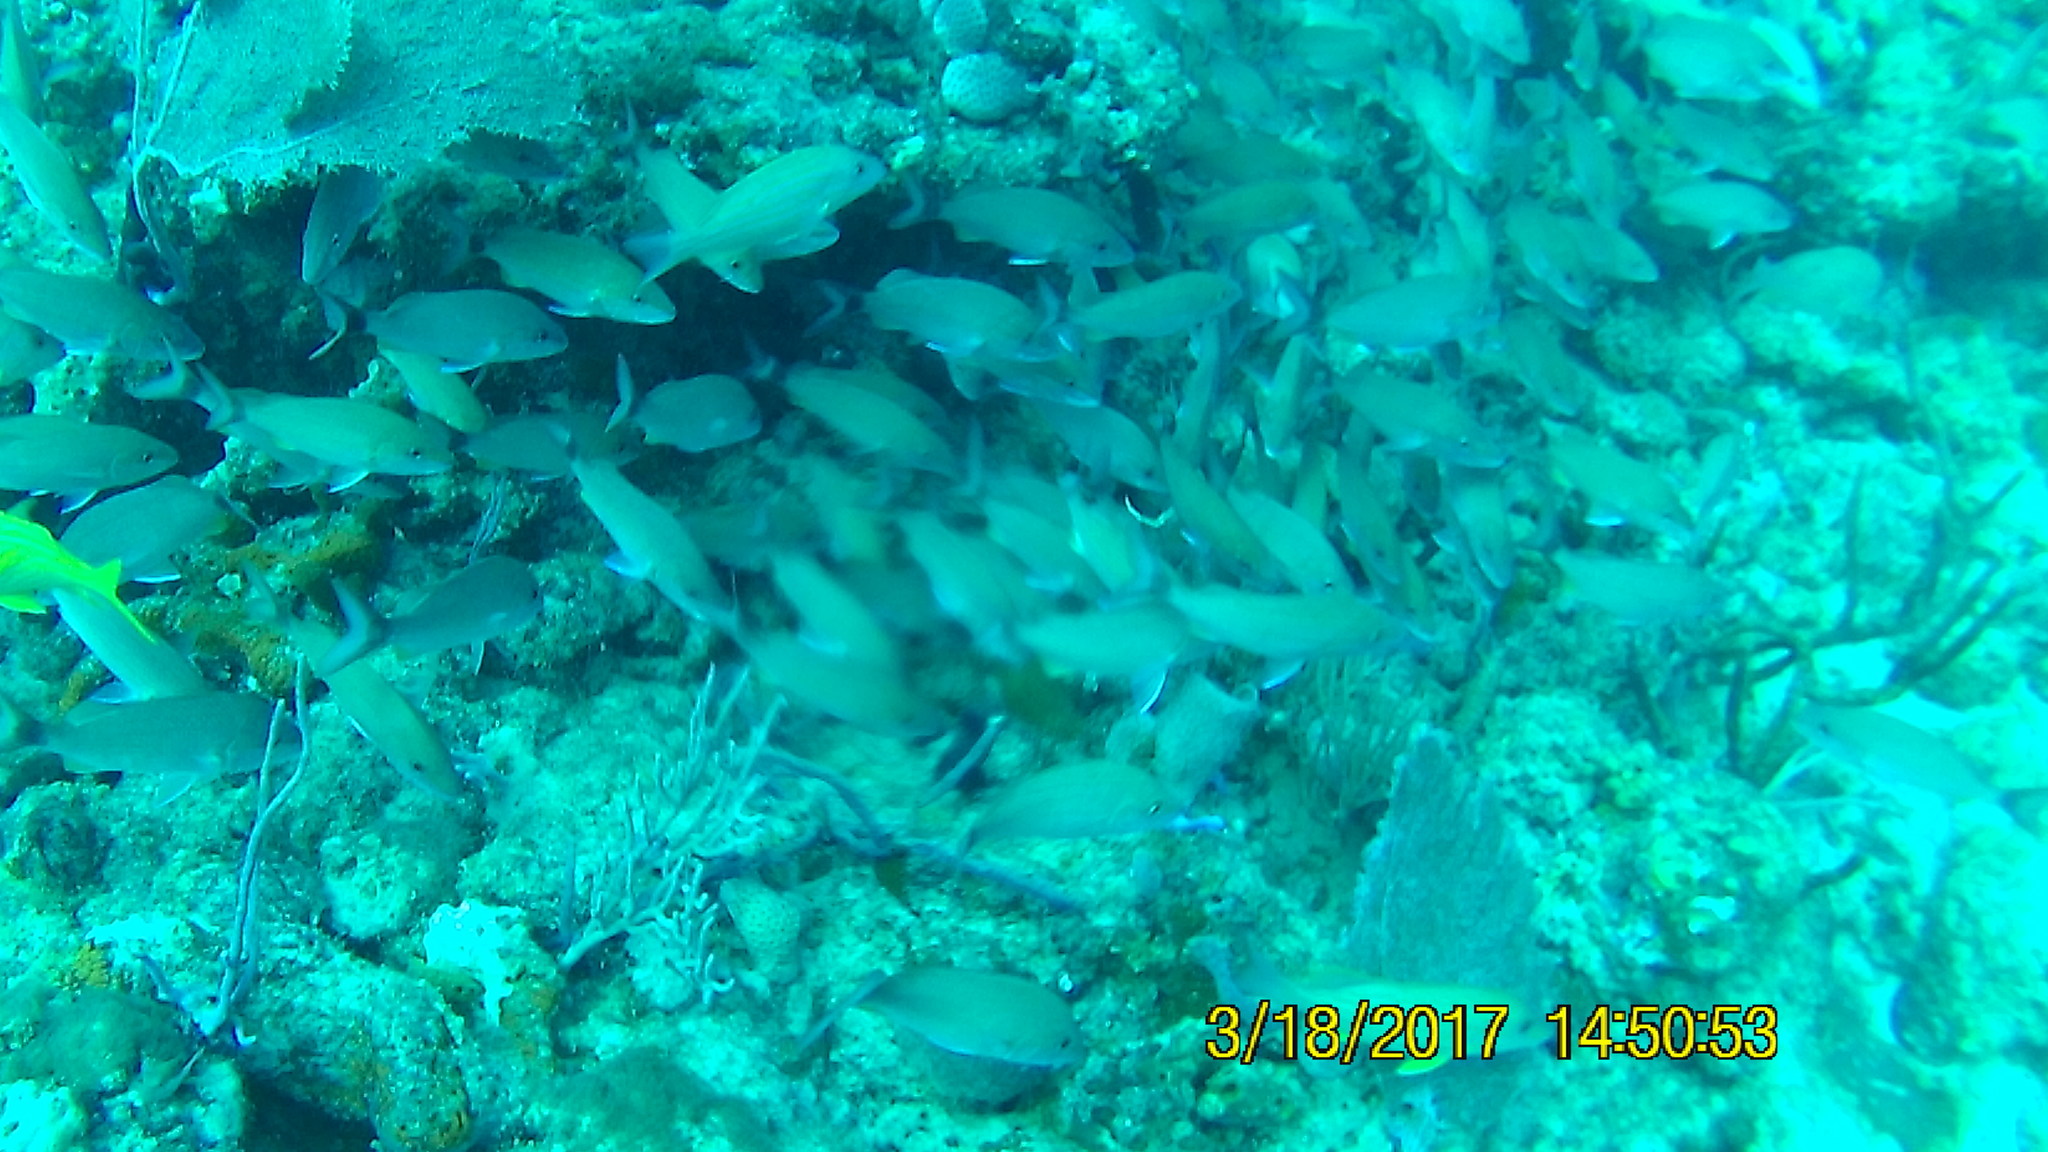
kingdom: Animalia
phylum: Chordata
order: Perciformes
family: Haemulidae
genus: Haemulon
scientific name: Haemulon carbonarium
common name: Caesar grunt
